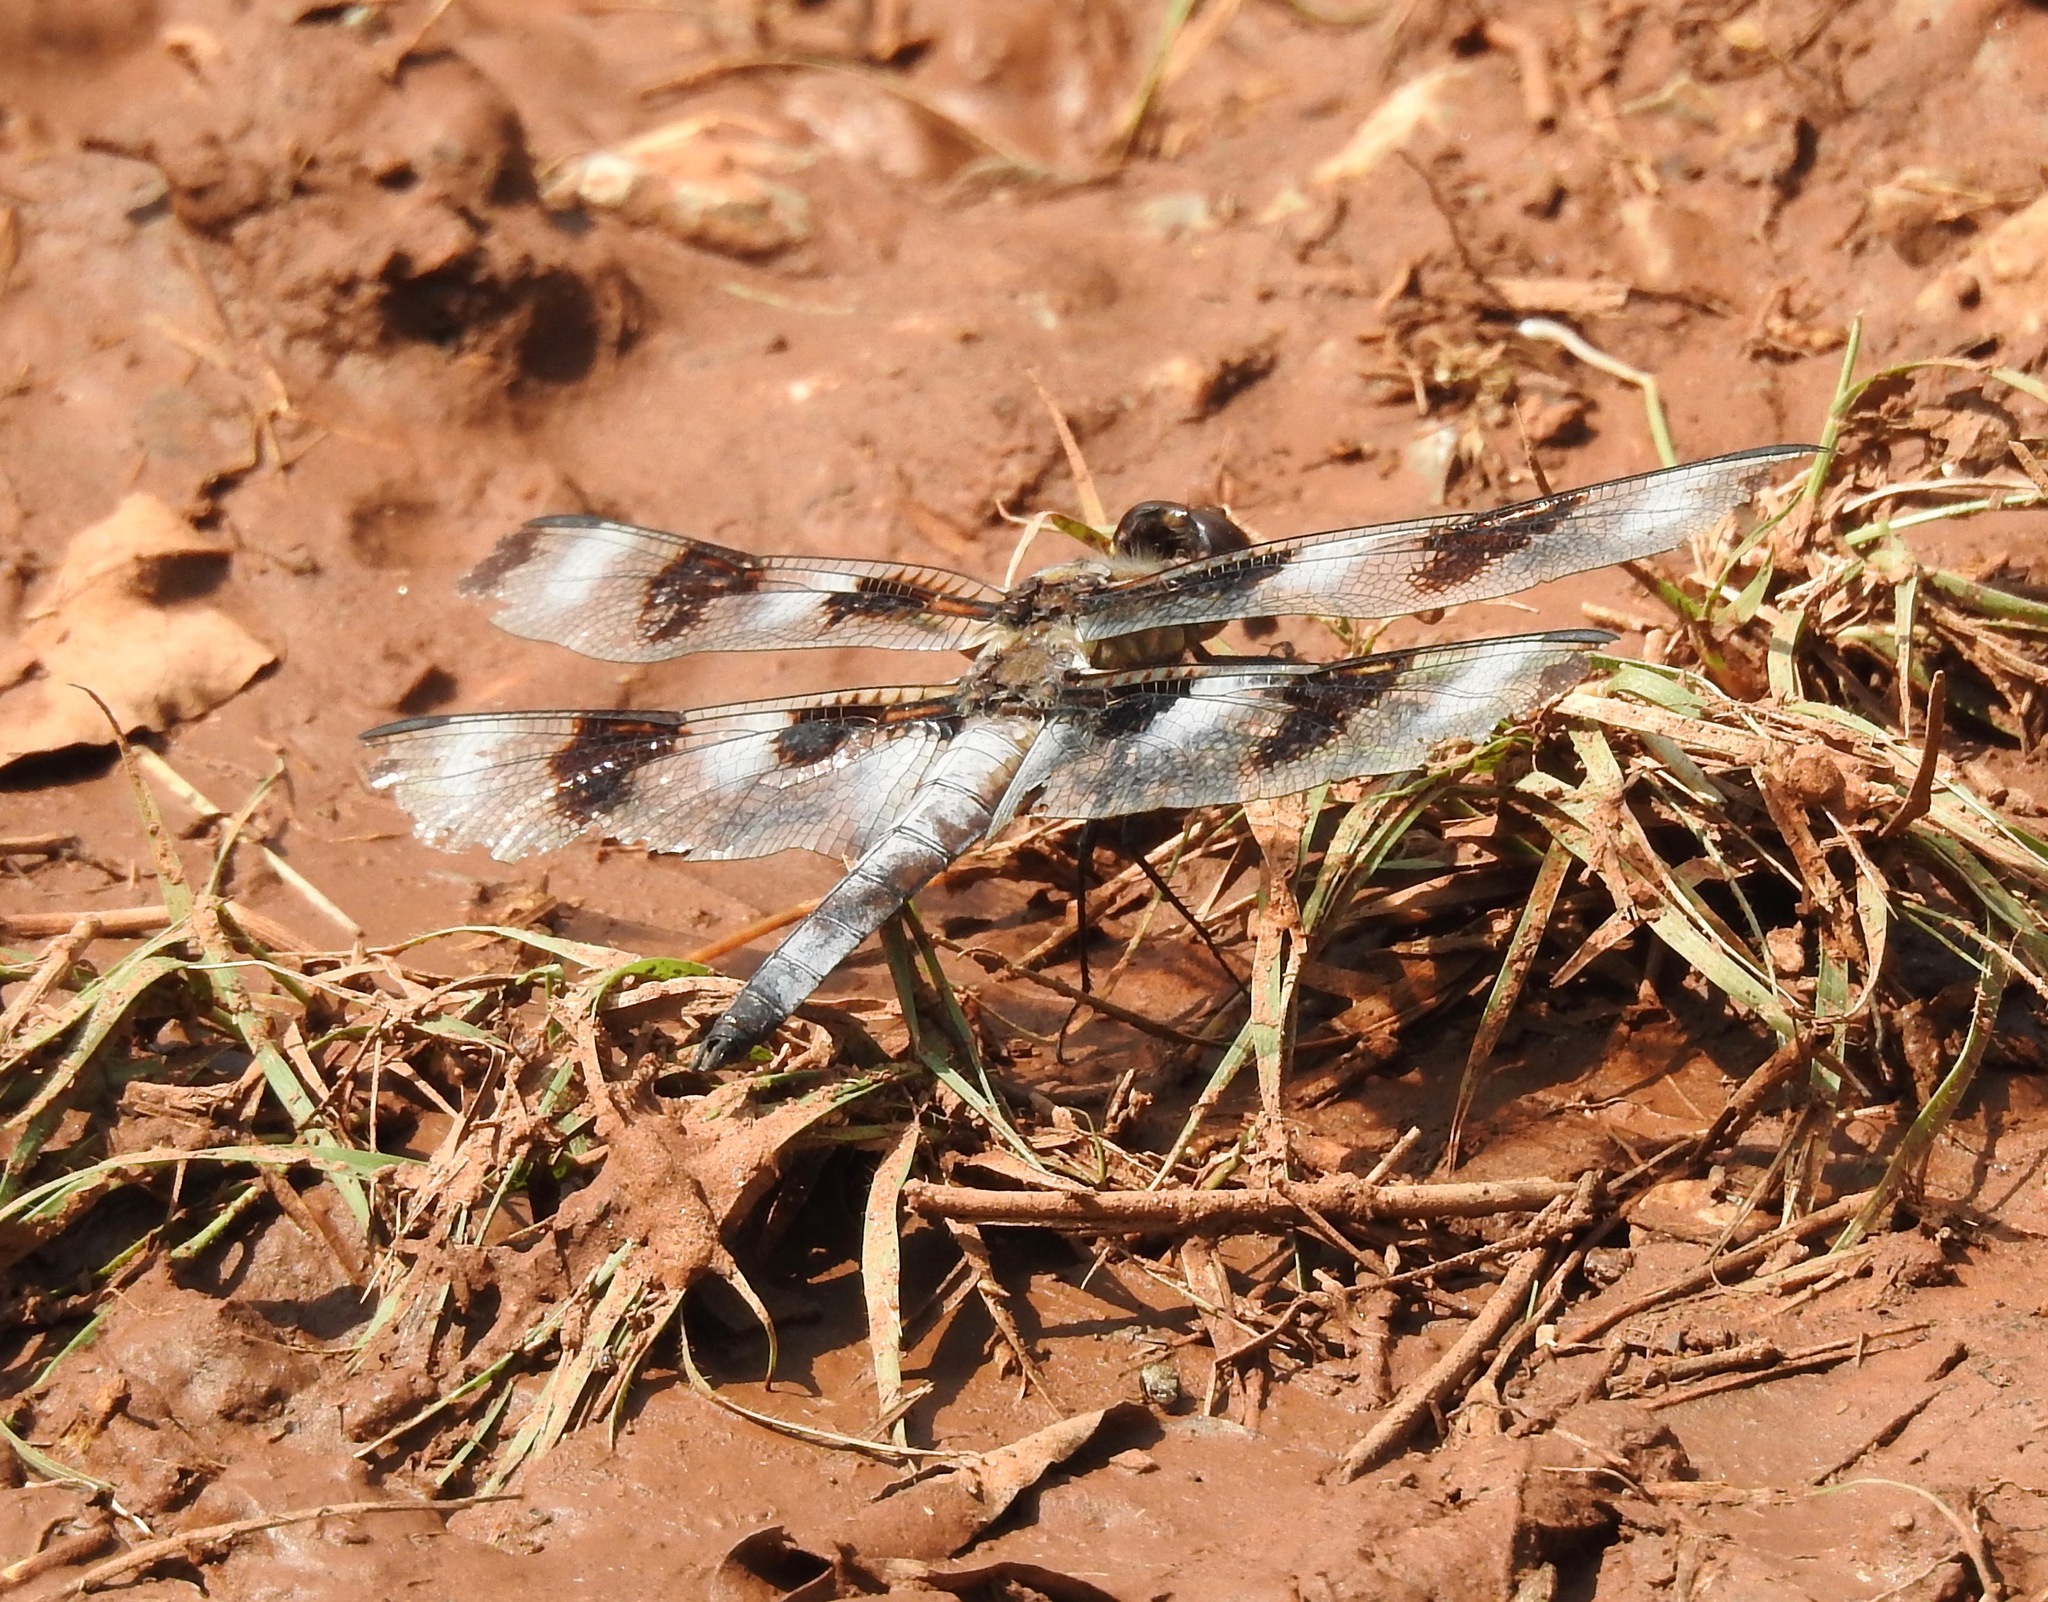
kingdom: Animalia
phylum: Arthropoda
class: Insecta
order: Odonata
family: Libellulidae
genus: Libellula
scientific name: Libellula pulchella
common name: Twelve-spotted skimmer
